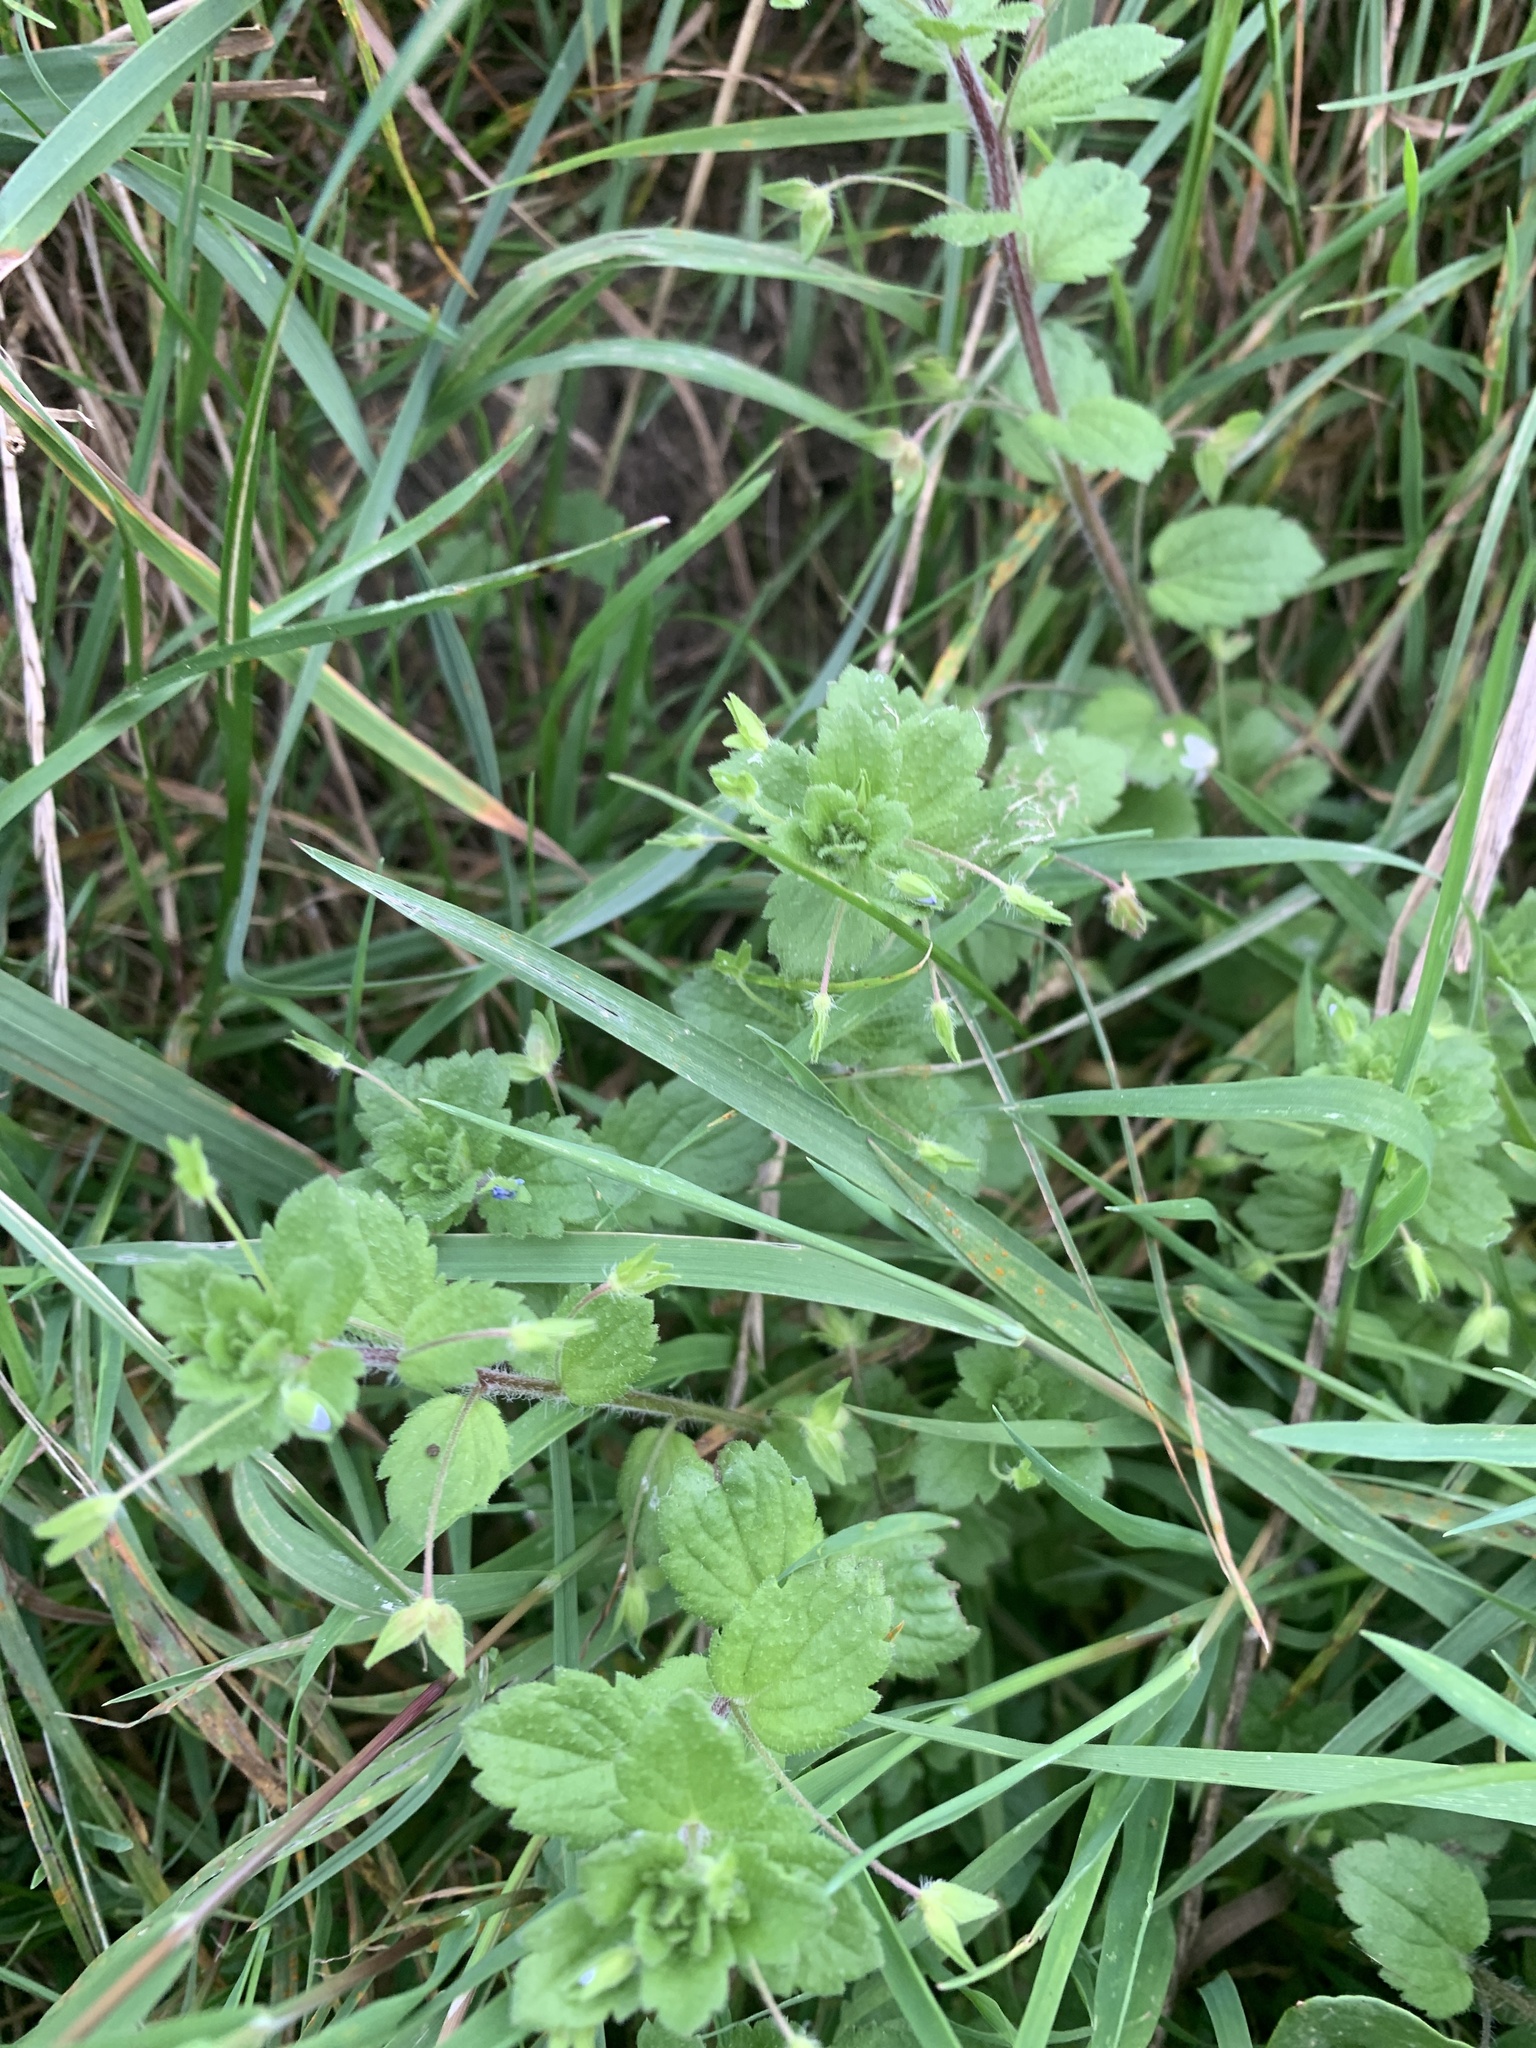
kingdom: Plantae
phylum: Tracheophyta
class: Magnoliopsida
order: Lamiales
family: Plantaginaceae
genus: Veronica
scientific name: Veronica persica
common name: Common field-speedwell
